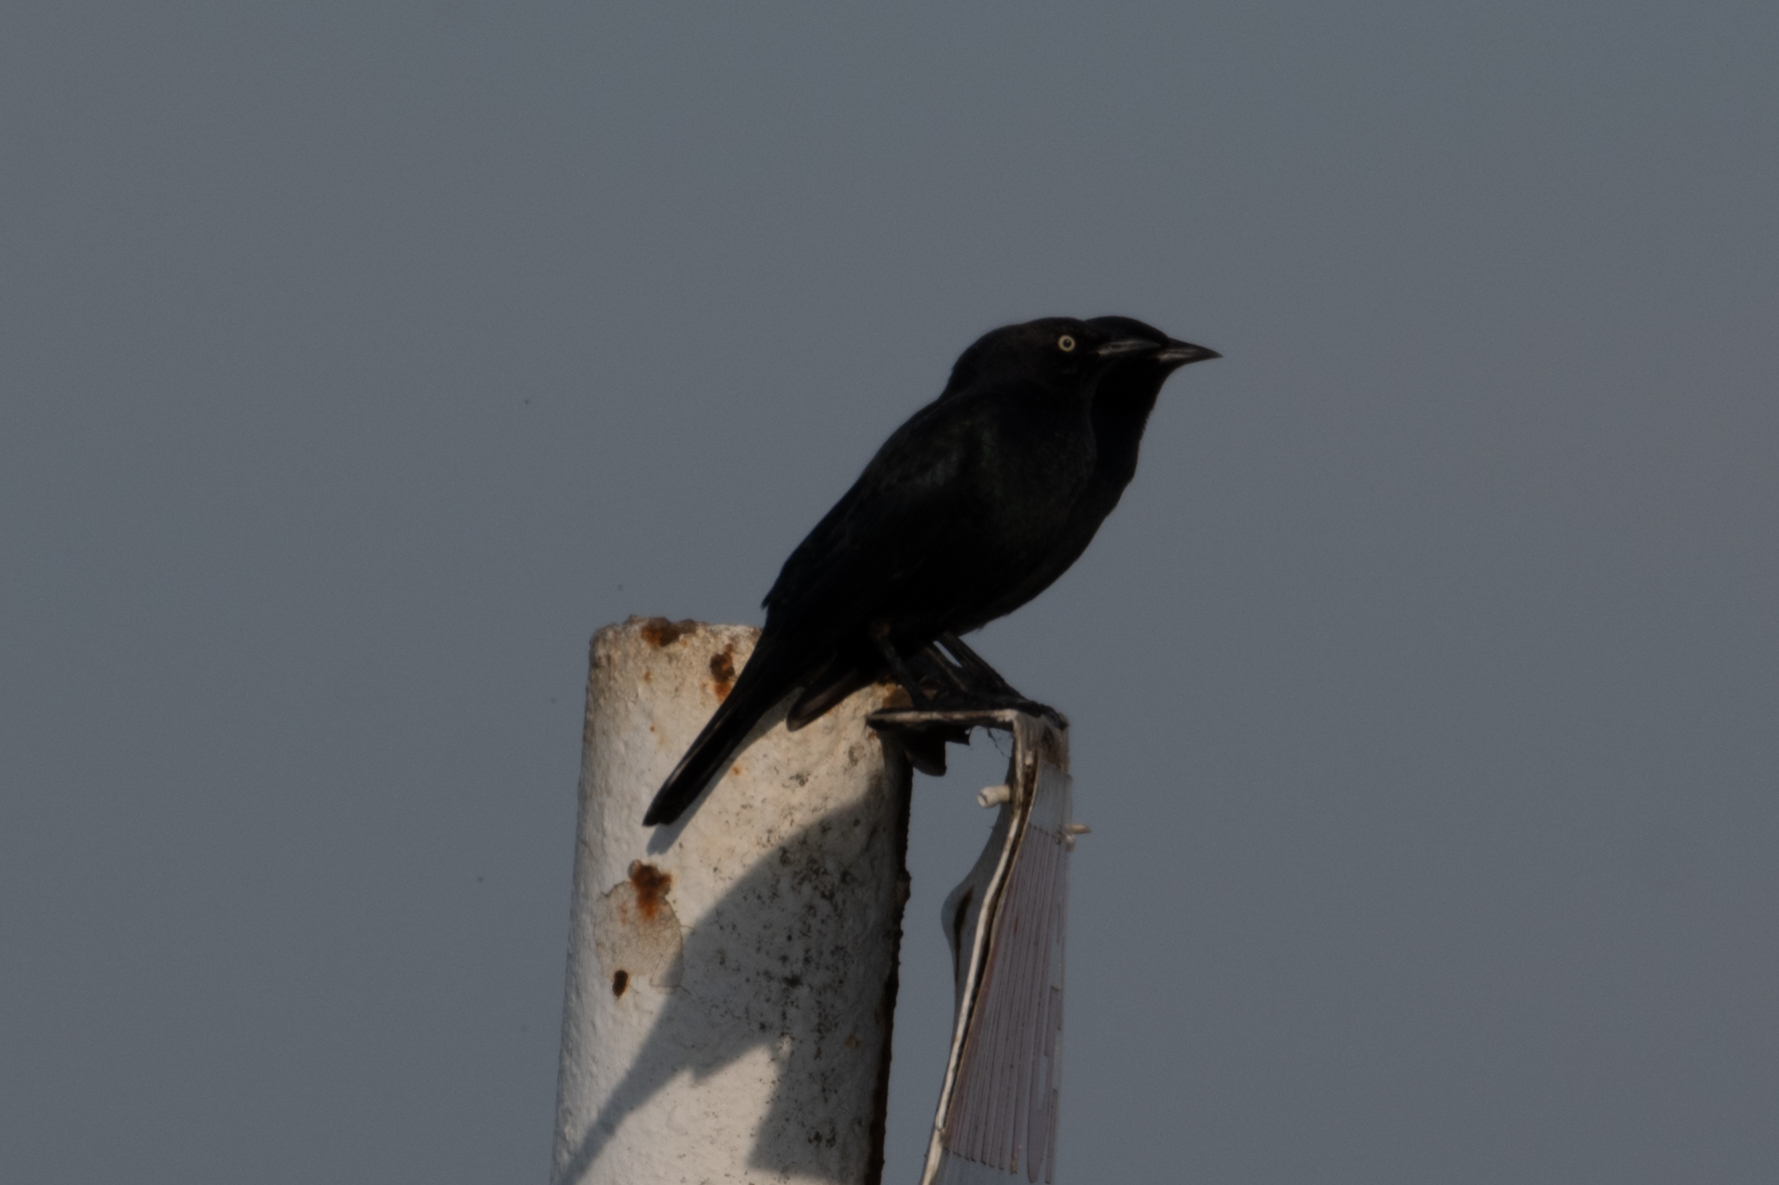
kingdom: Animalia
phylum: Chordata
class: Aves
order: Passeriformes
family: Icteridae
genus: Euphagus
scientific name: Euphagus cyanocephalus
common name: Brewer's blackbird
